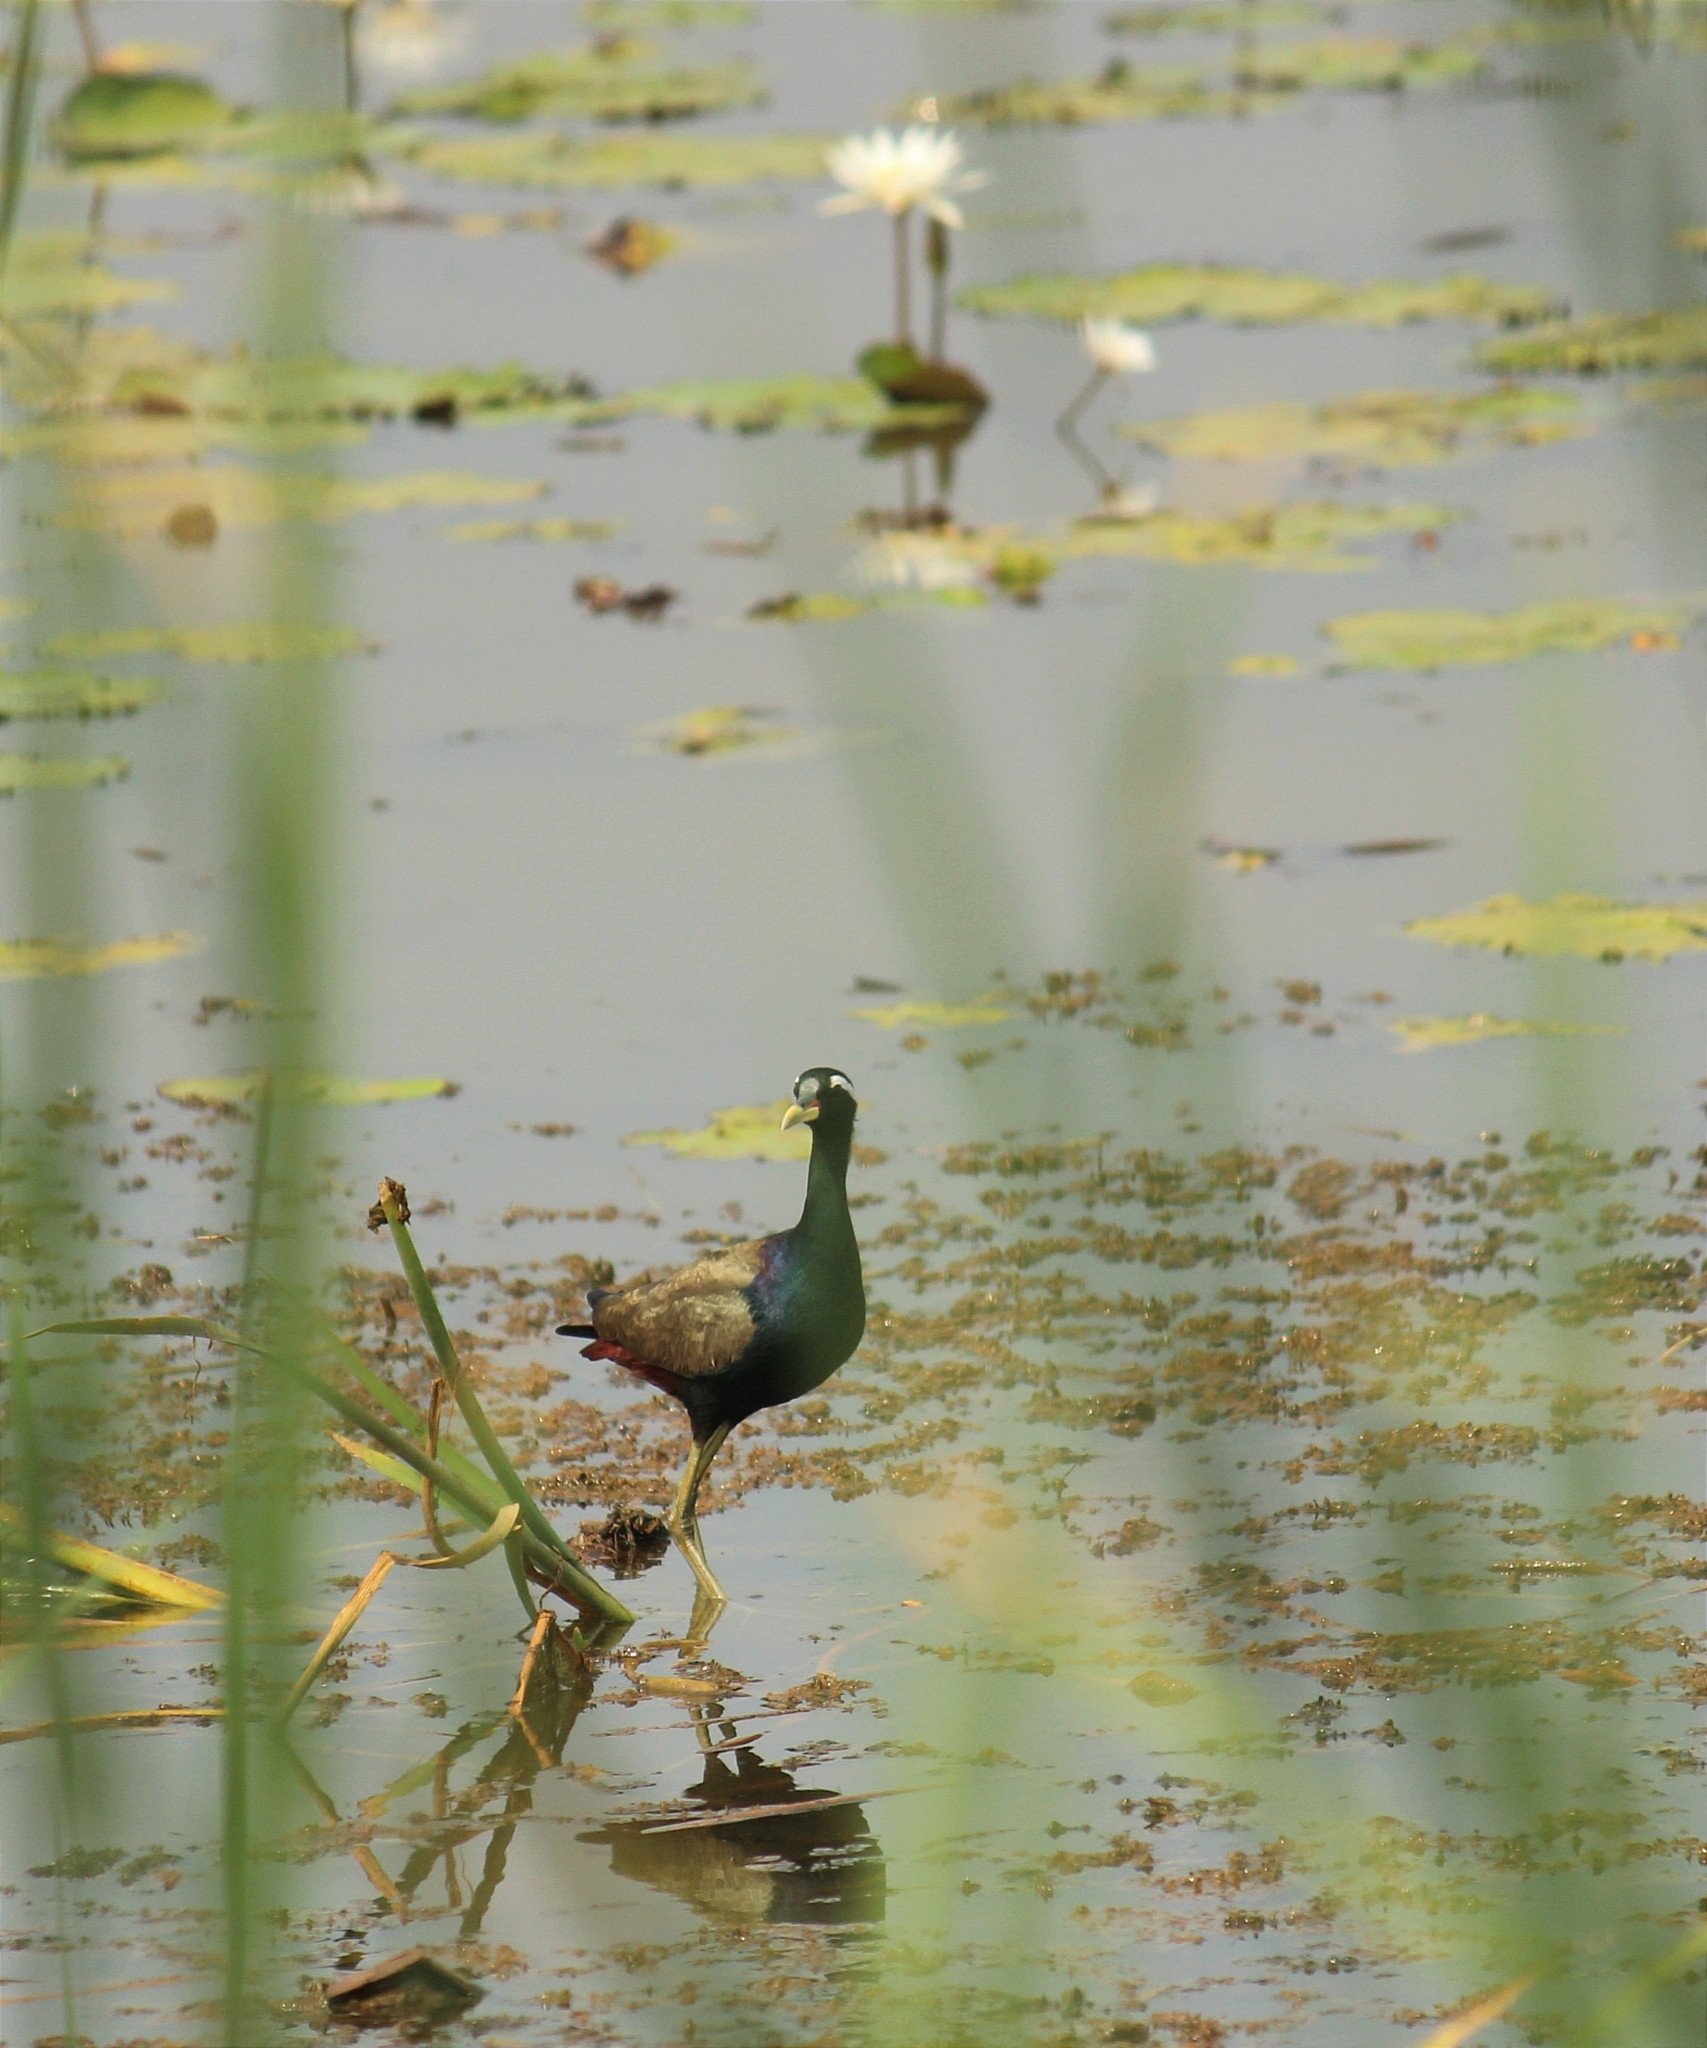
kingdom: Animalia
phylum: Chordata
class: Aves
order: Charadriiformes
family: Jacanidae
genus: Metopidius
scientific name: Metopidius indicus
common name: Bronze-winged jacana
